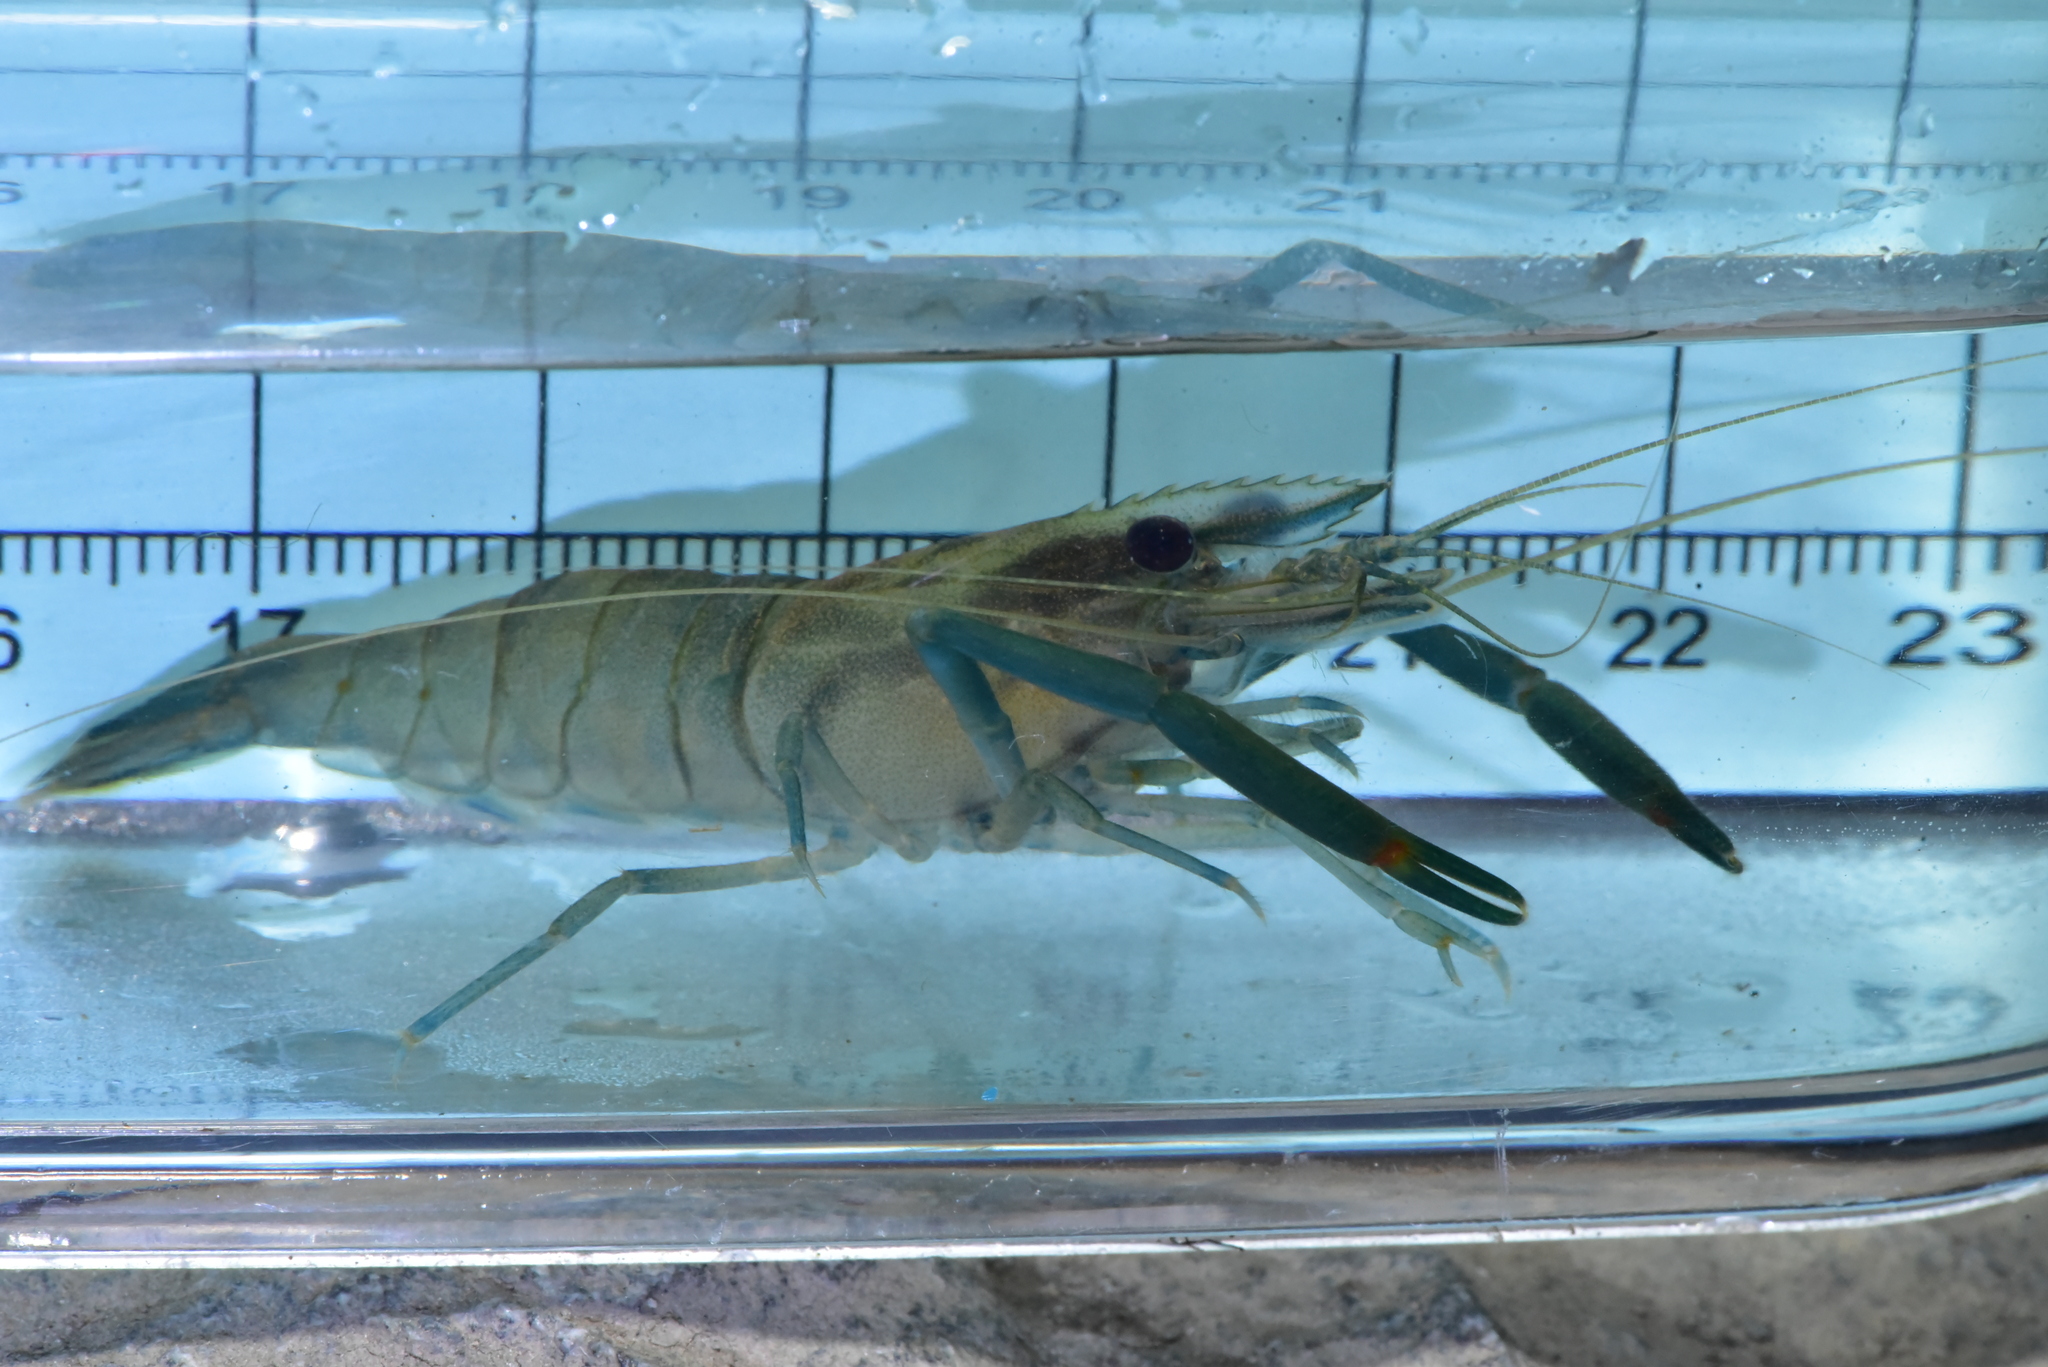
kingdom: Animalia
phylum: Arthropoda
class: Malacostraca
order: Decapoda
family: Palaemonidae
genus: Macrobrachium
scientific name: Macrobrachium asperulum
